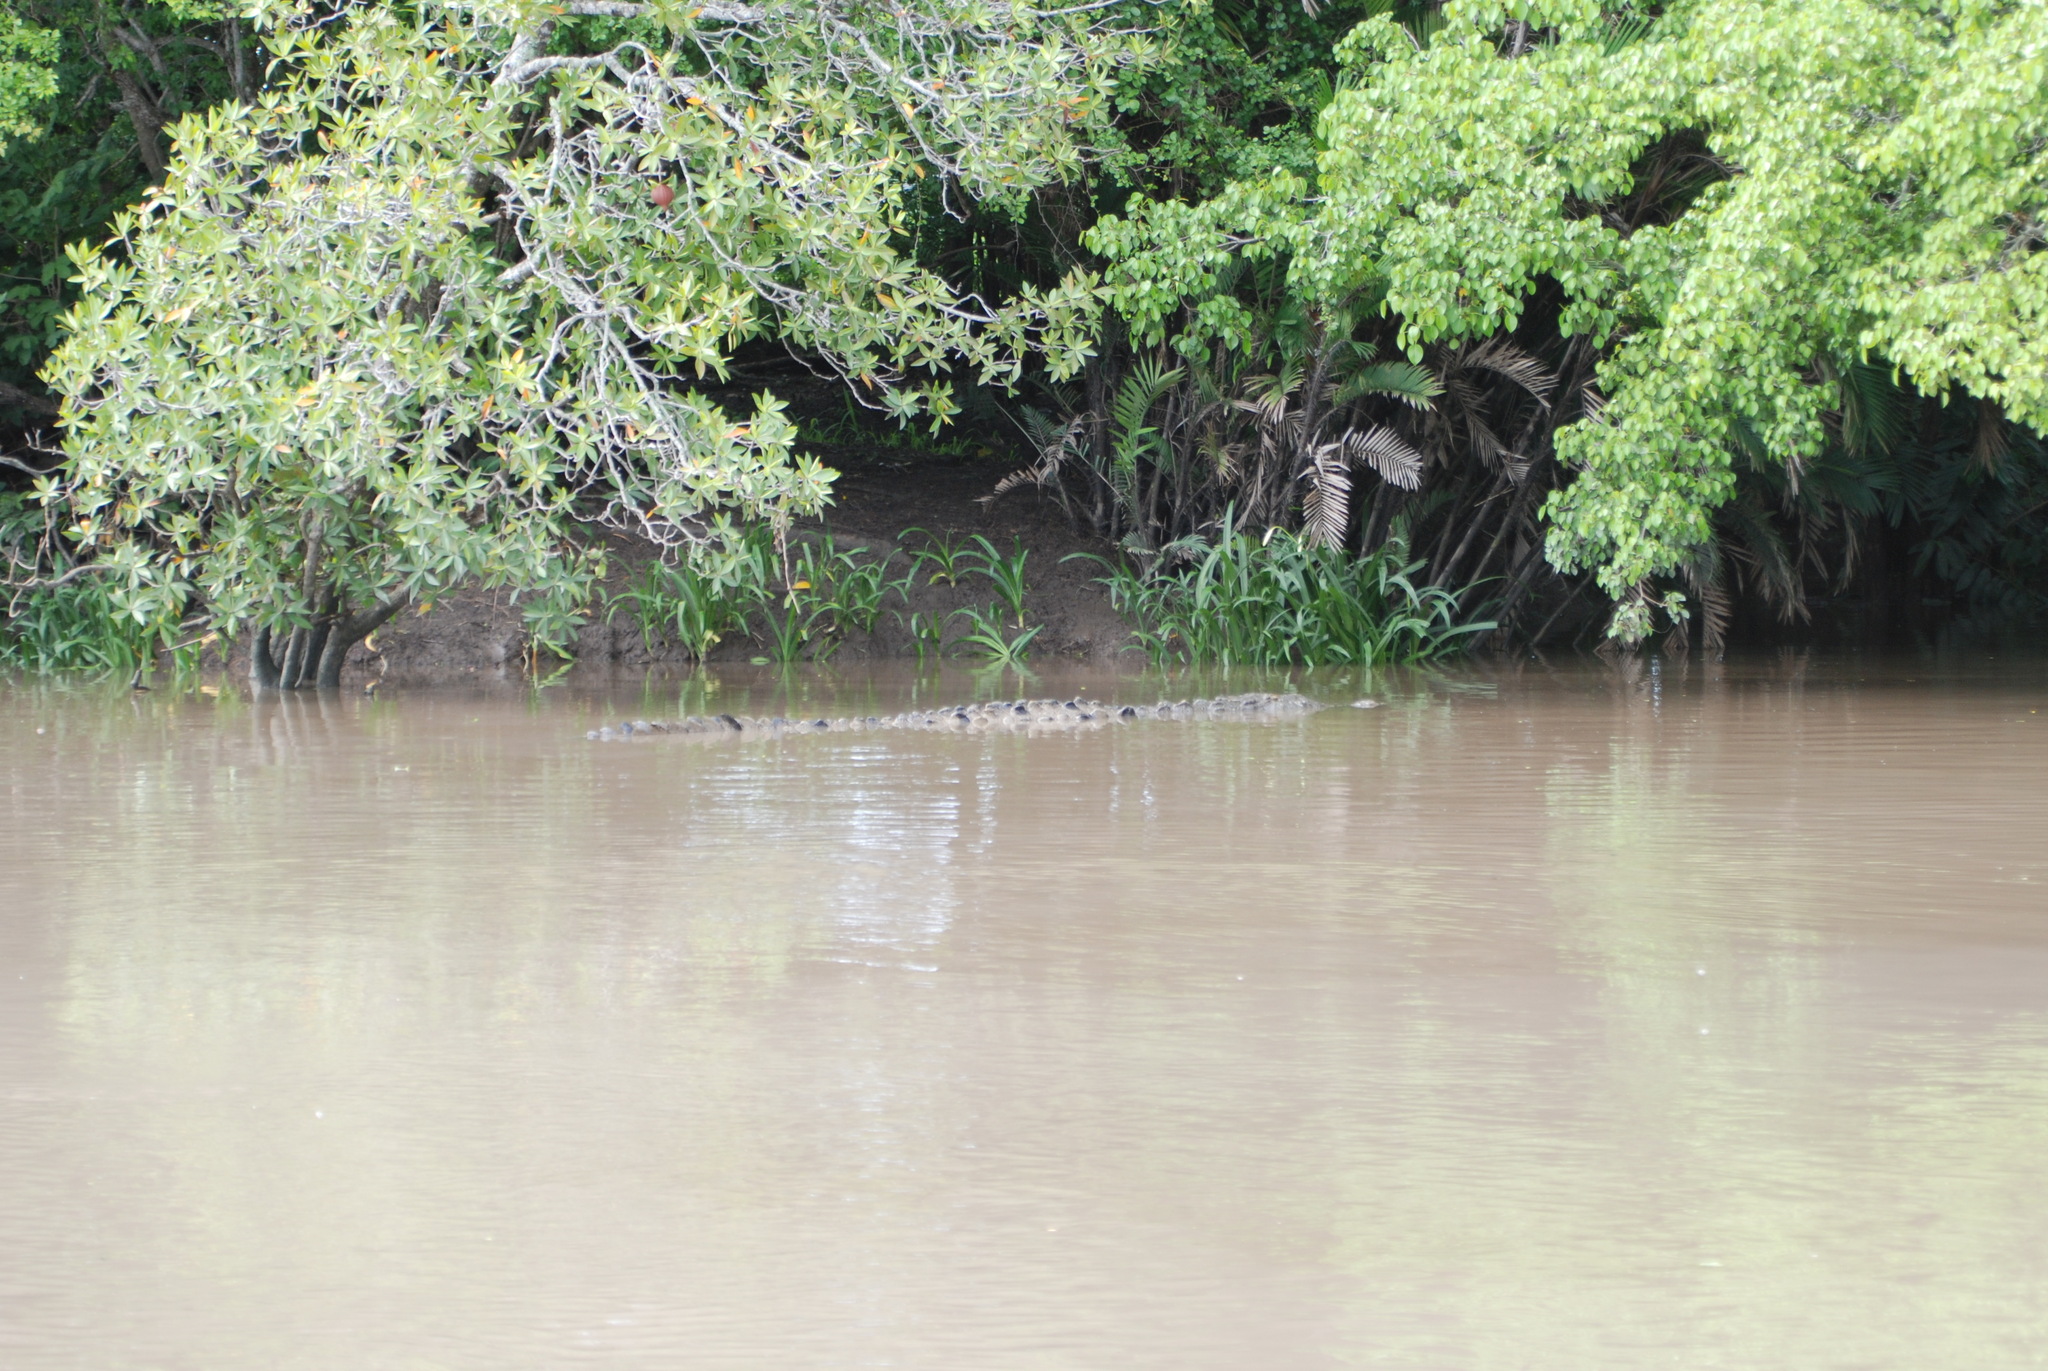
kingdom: Animalia
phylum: Chordata
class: Crocodylia
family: Crocodylidae
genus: Crocodylus
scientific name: Crocodylus acutus
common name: American crocodile
